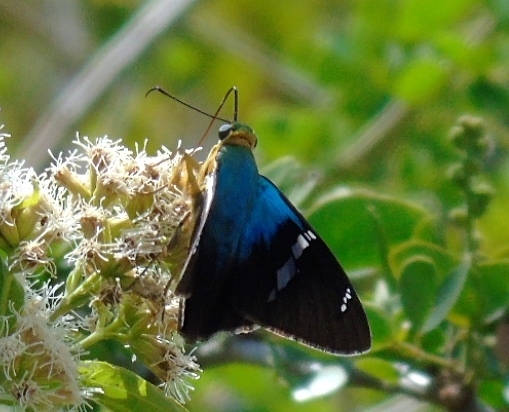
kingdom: Animalia
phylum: Arthropoda
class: Insecta
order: Lepidoptera
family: Hesperiidae
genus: Astraptes
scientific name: Astraptes fulgerator
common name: Two-barred flasher
